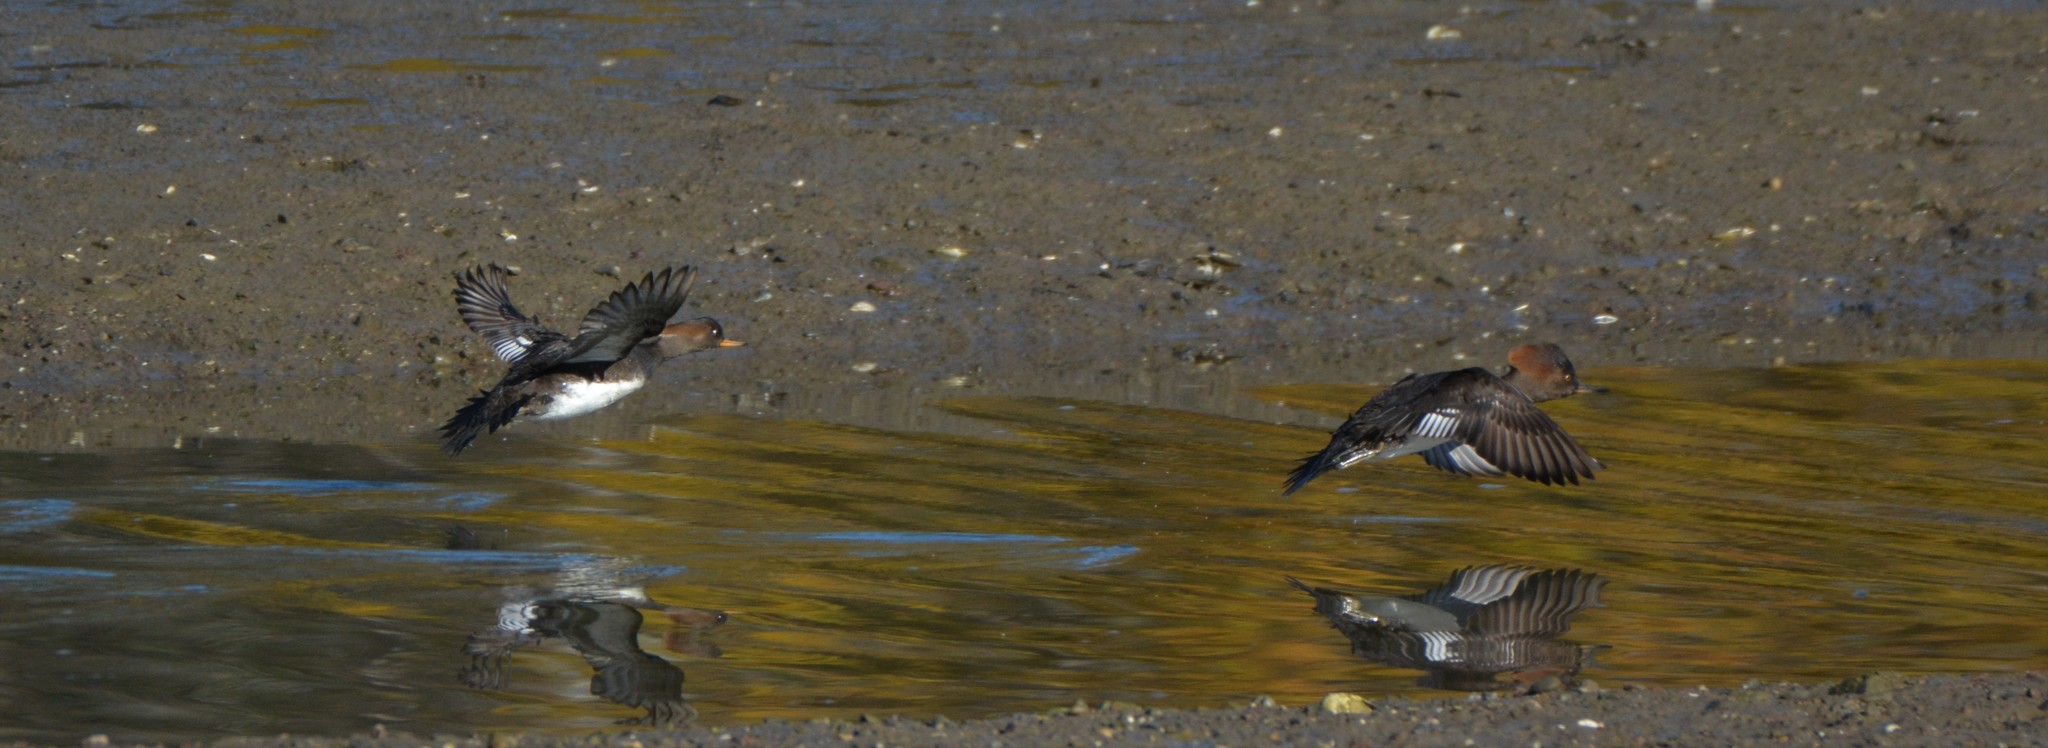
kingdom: Animalia
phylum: Chordata
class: Aves
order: Anseriformes
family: Anatidae
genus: Lophodytes
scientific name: Lophodytes cucullatus
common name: Hooded merganser
